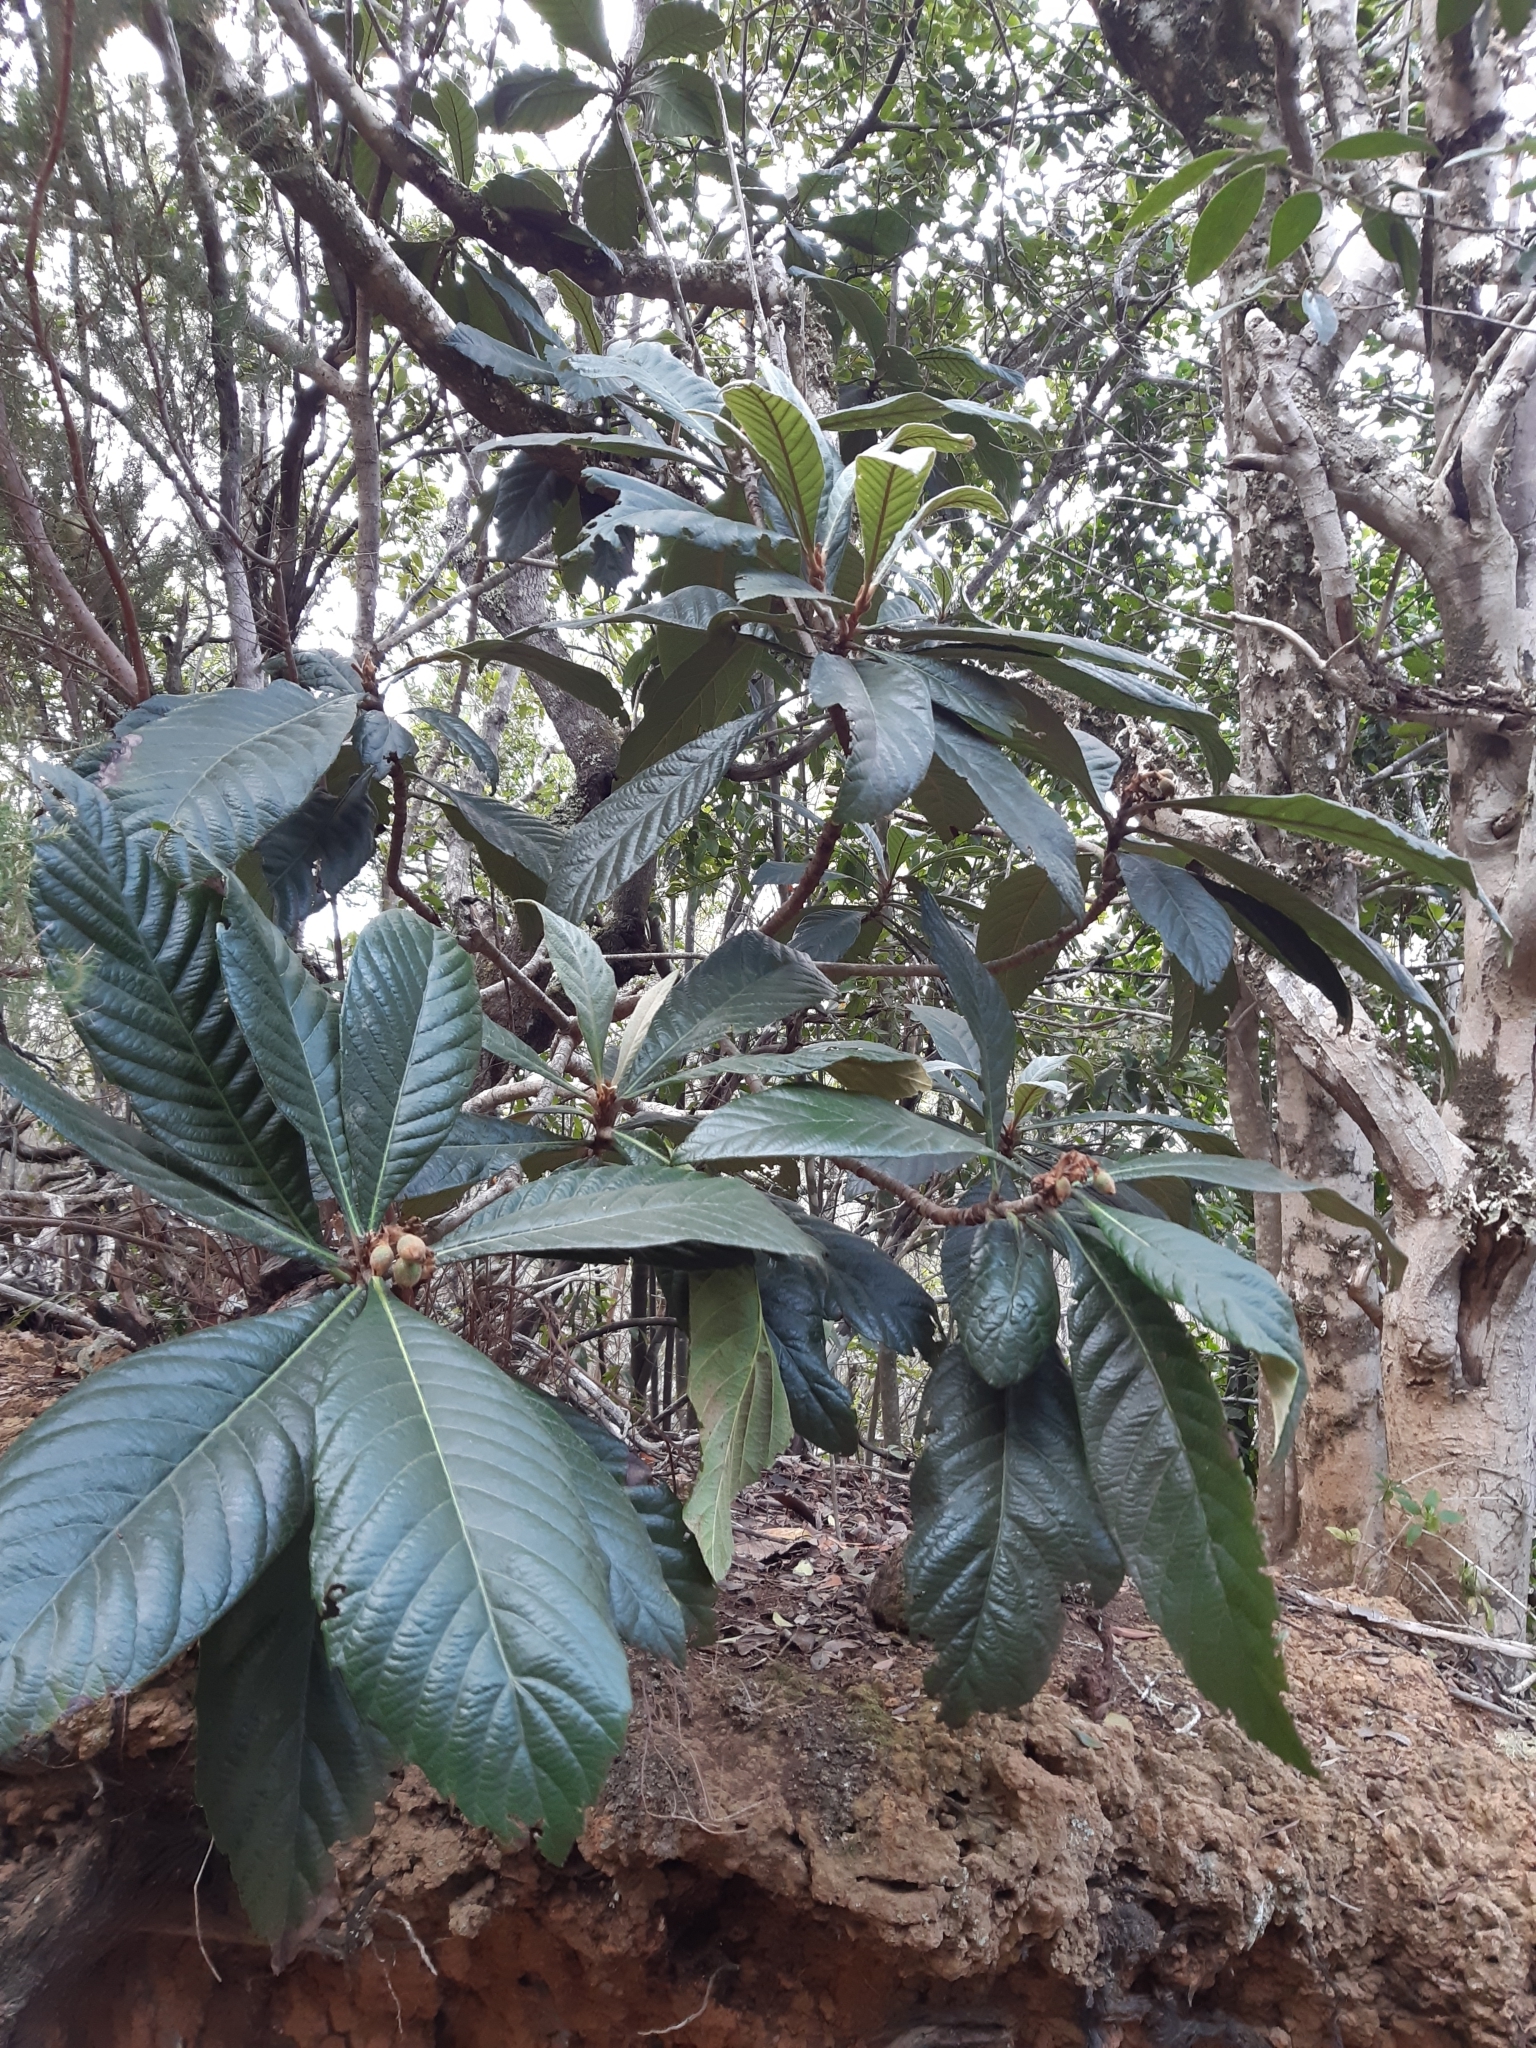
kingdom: Plantae
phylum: Tracheophyta
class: Magnoliopsida
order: Rosales
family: Rosaceae
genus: Rhaphiolepis
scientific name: Rhaphiolepis bibas
